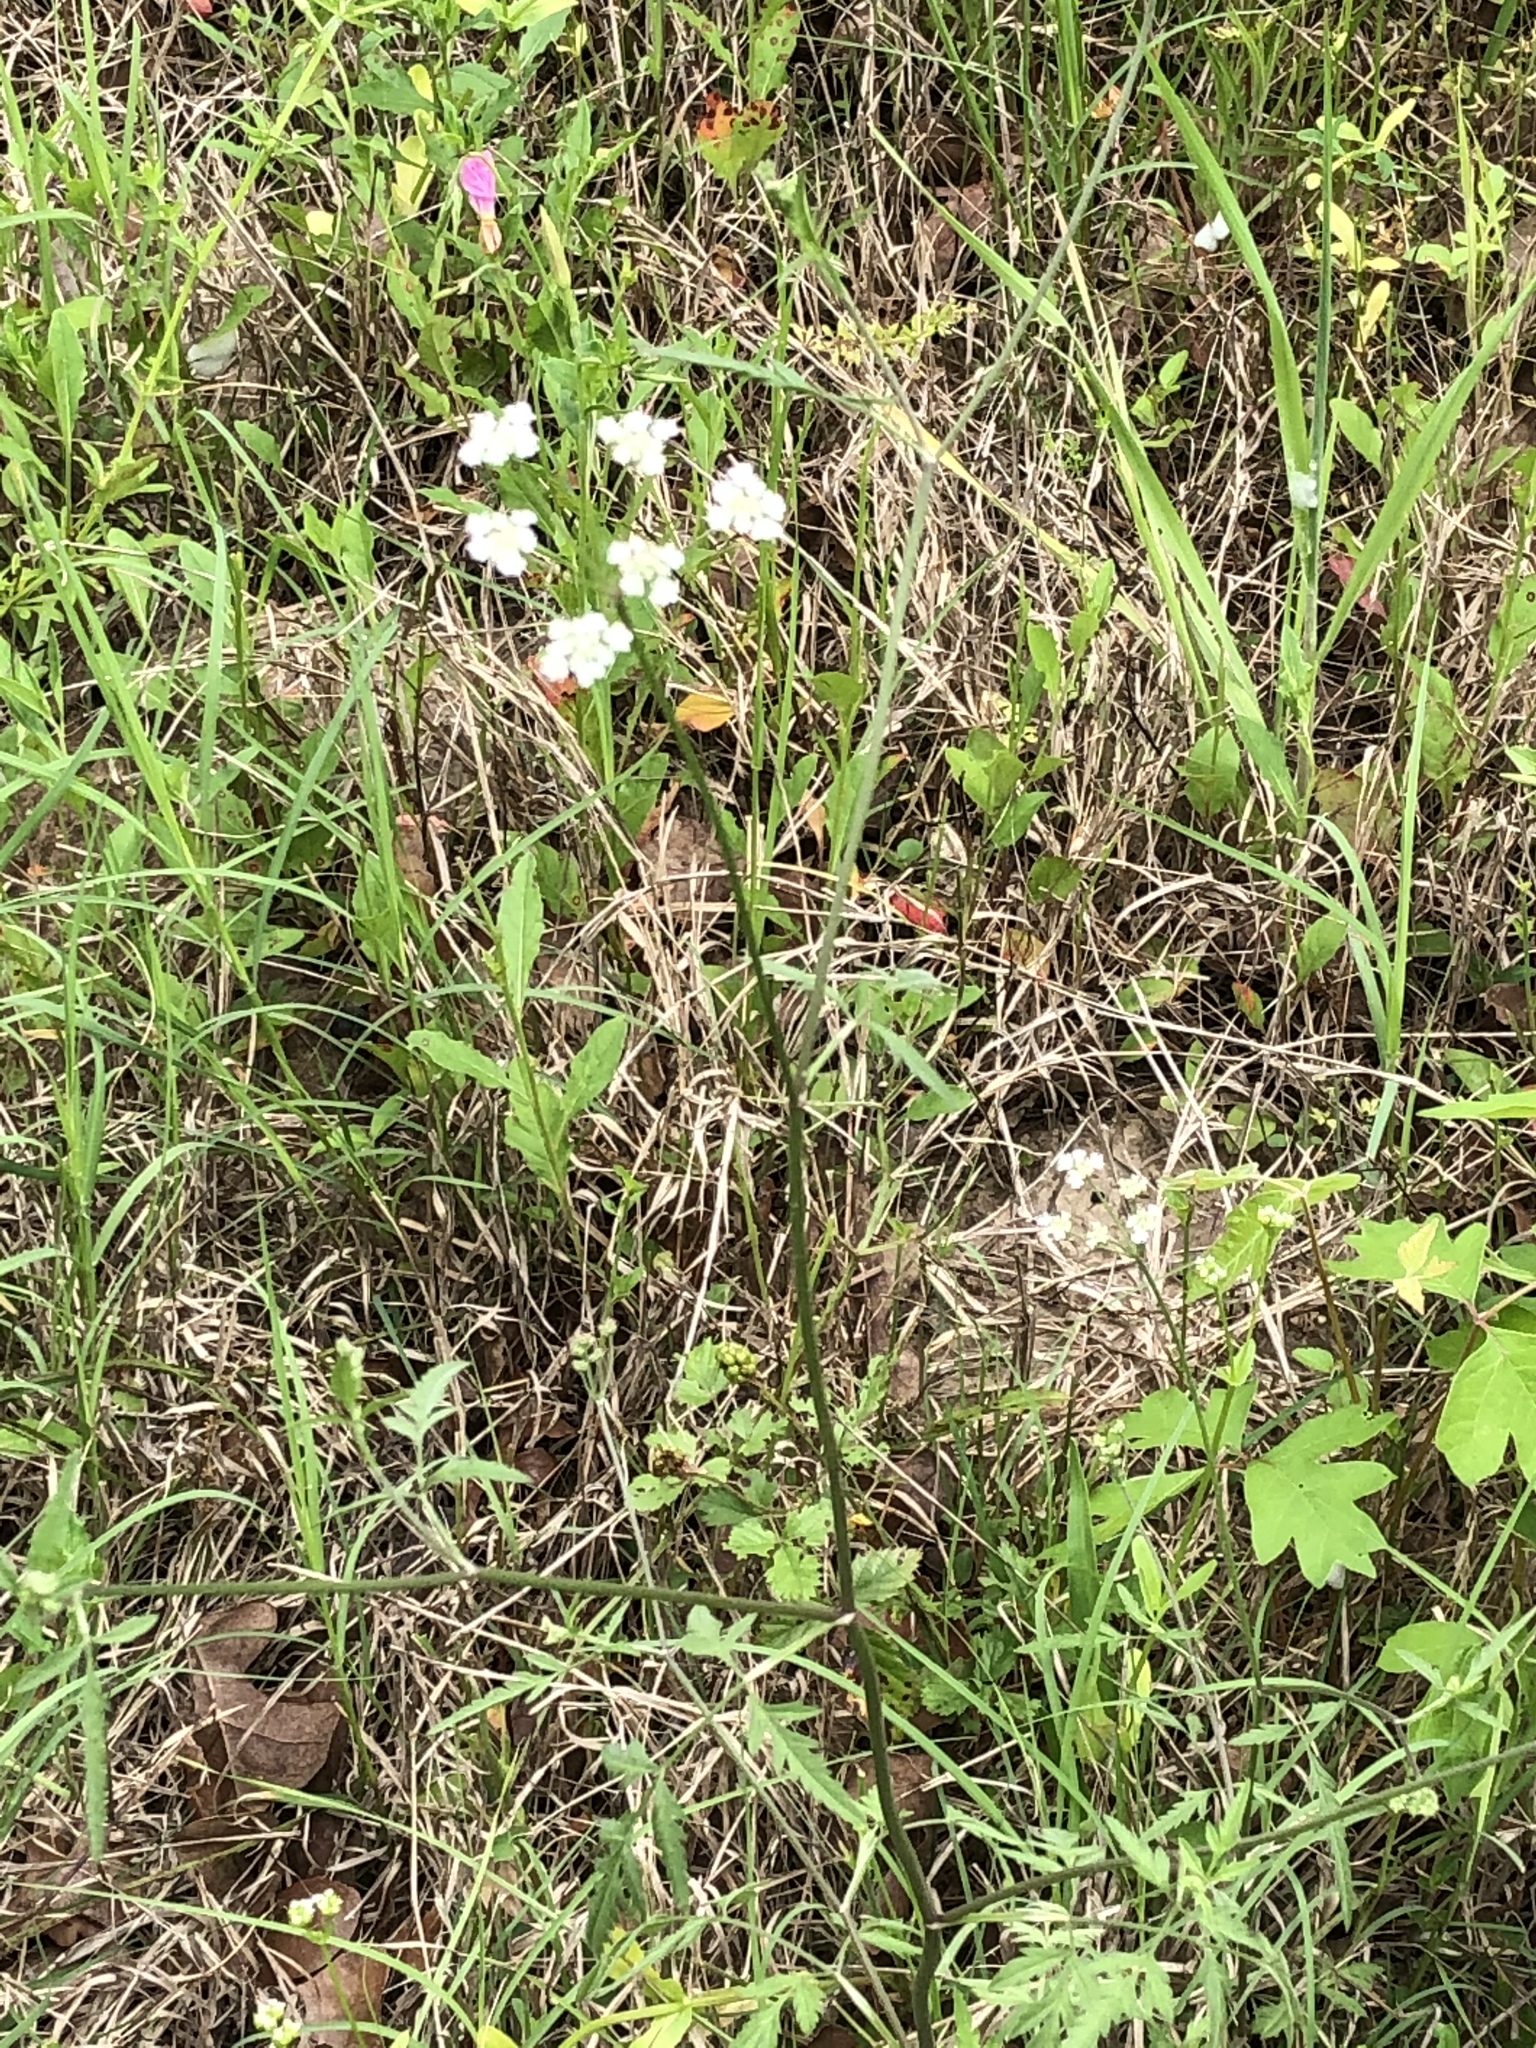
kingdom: Plantae
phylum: Tracheophyta
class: Magnoliopsida
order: Apiales
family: Apiaceae
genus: Torilis
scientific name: Torilis arvensis
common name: Spreading hedge-parsley
